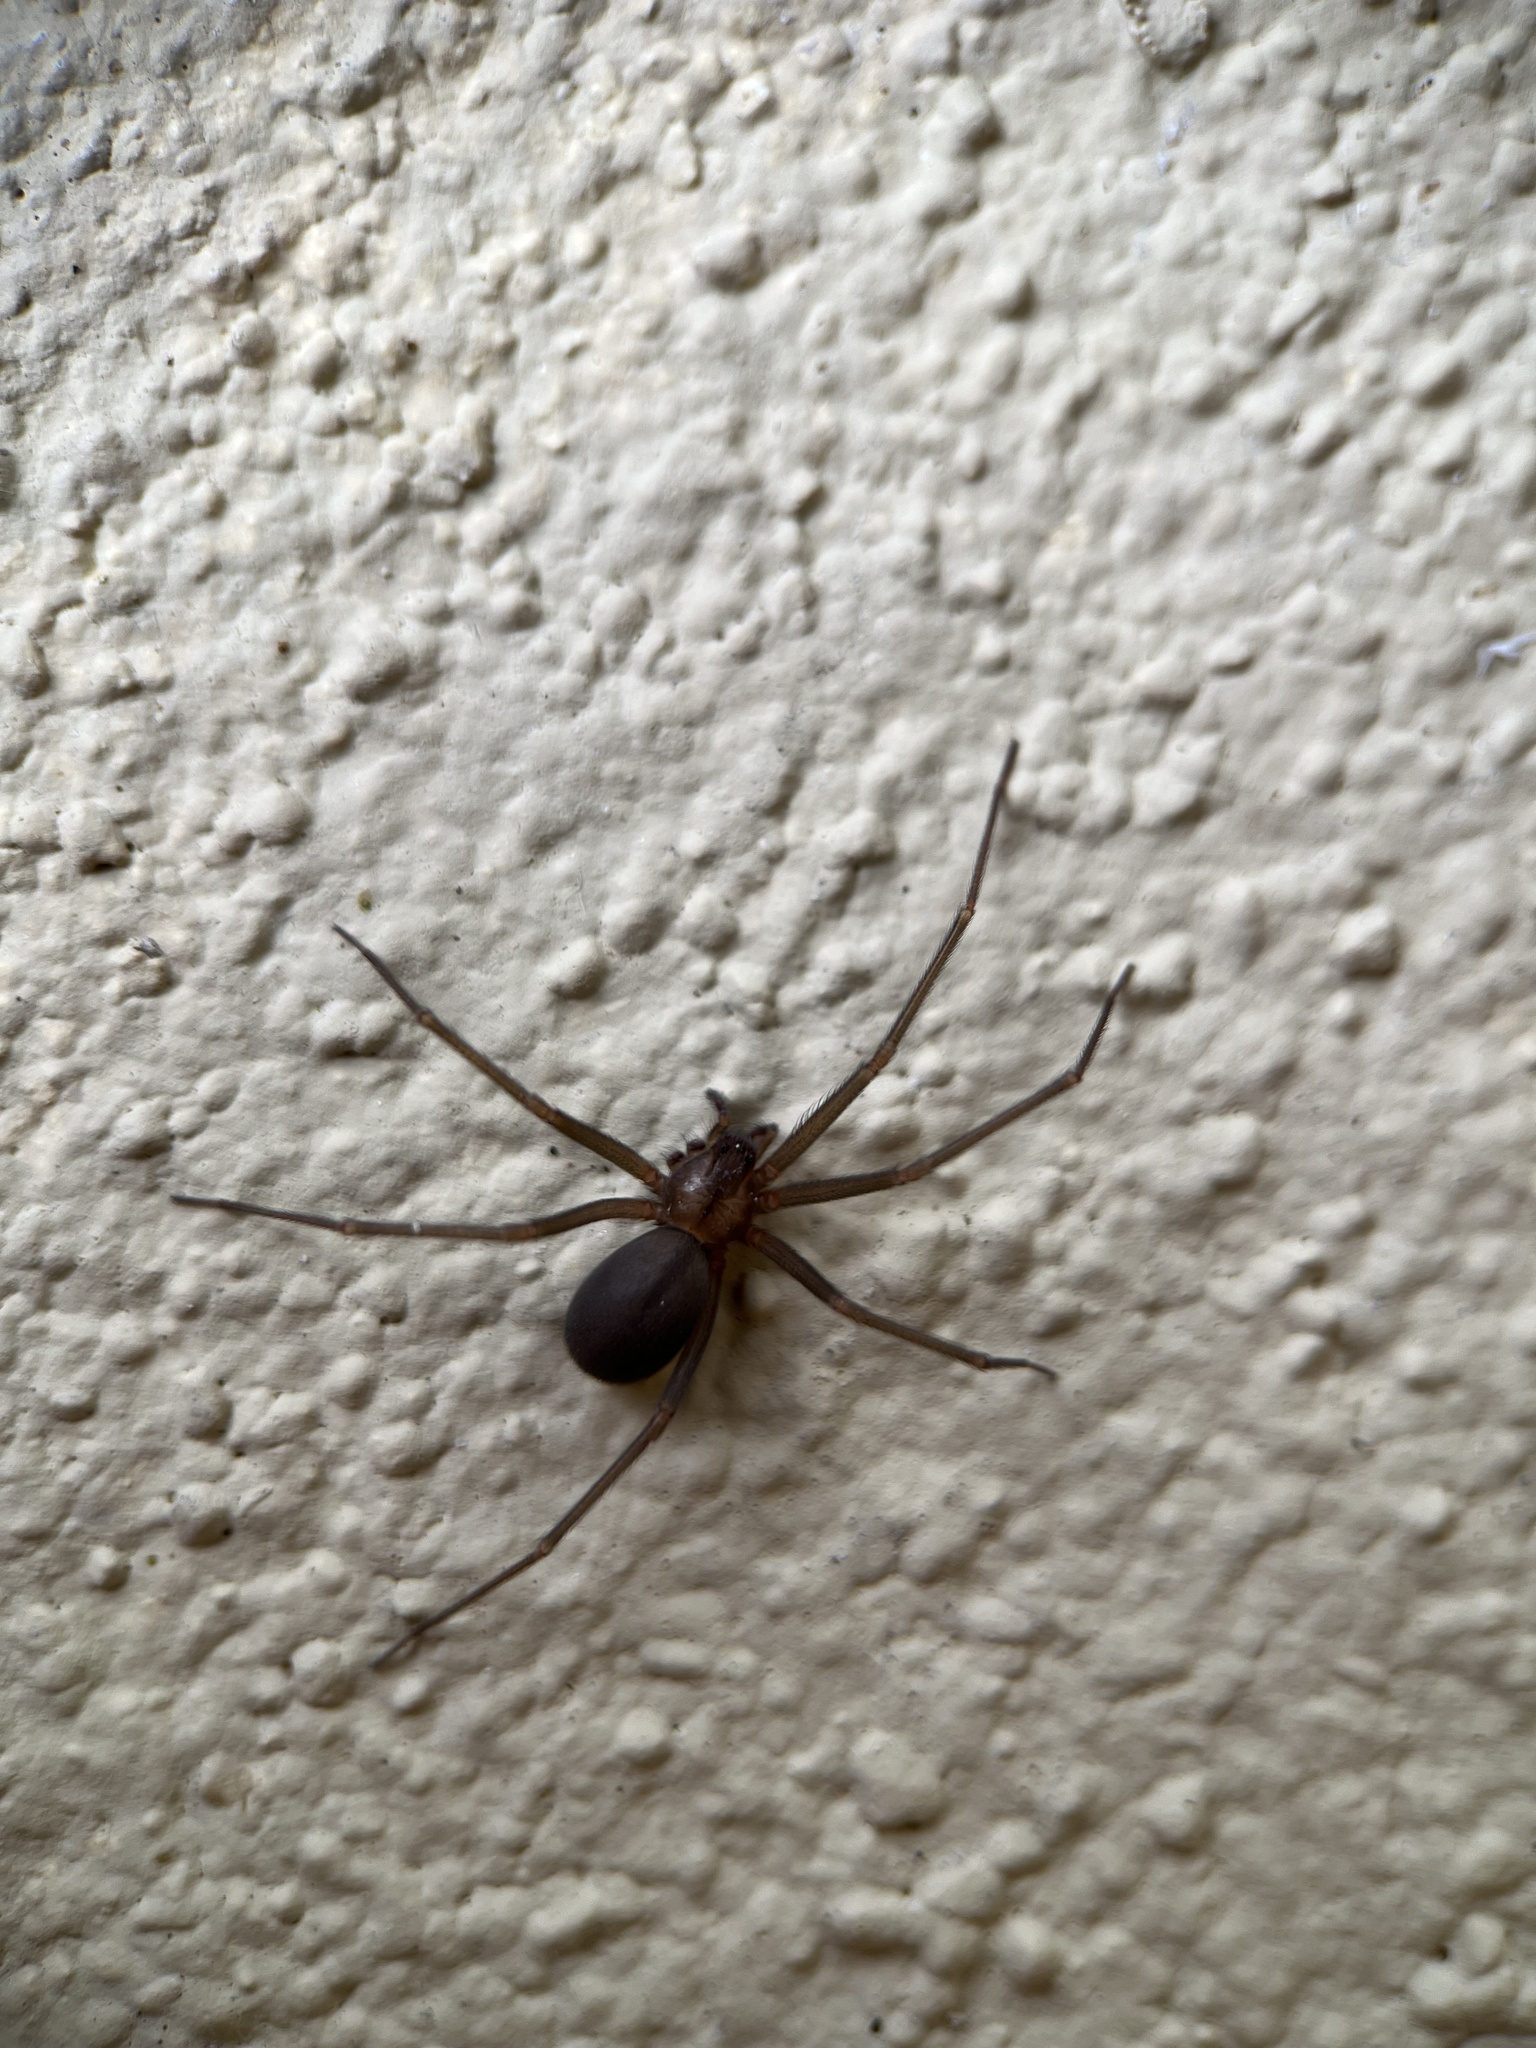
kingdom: Animalia
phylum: Arthropoda
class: Arachnida
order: Araneae
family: Sicariidae
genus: Loxosceles
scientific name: Loxosceles
